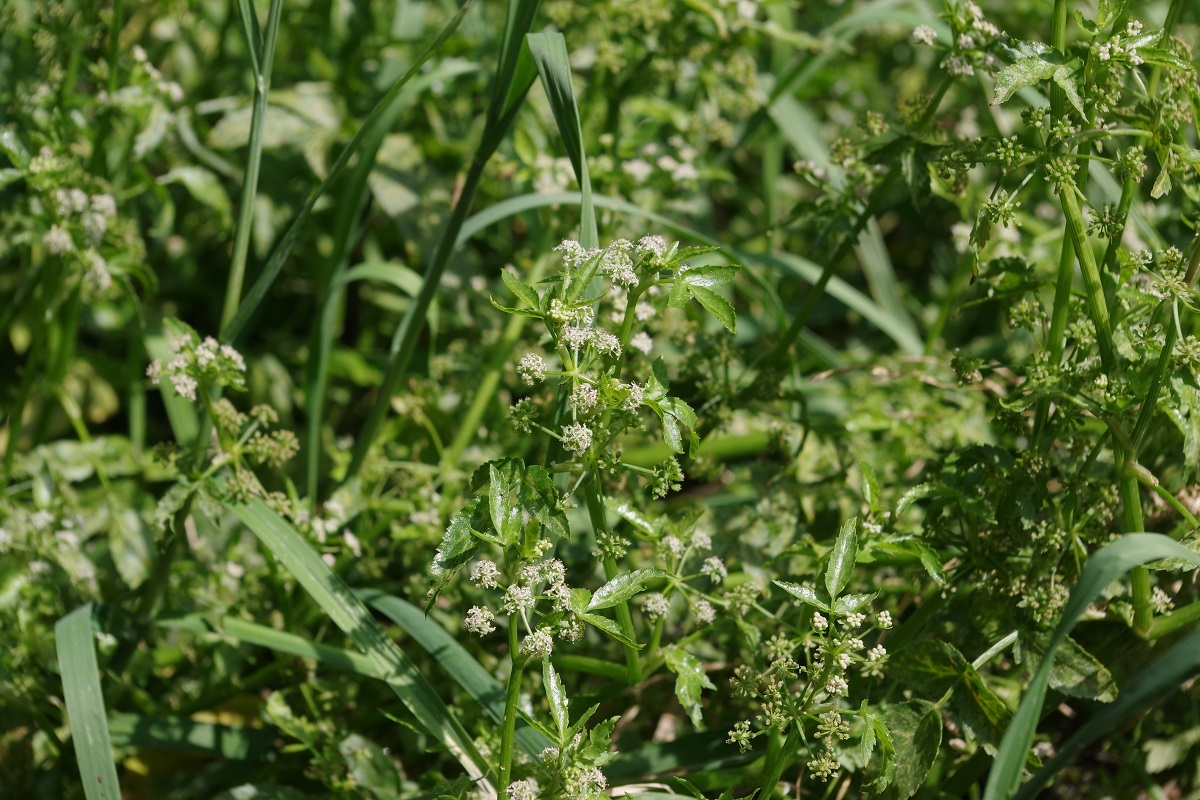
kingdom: Plantae
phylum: Tracheophyta
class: Magnoliopsida
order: Apiales
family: Apiaceae
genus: Helosciadium
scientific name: Helosciadium nodiflorum
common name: Fool's-watercress
